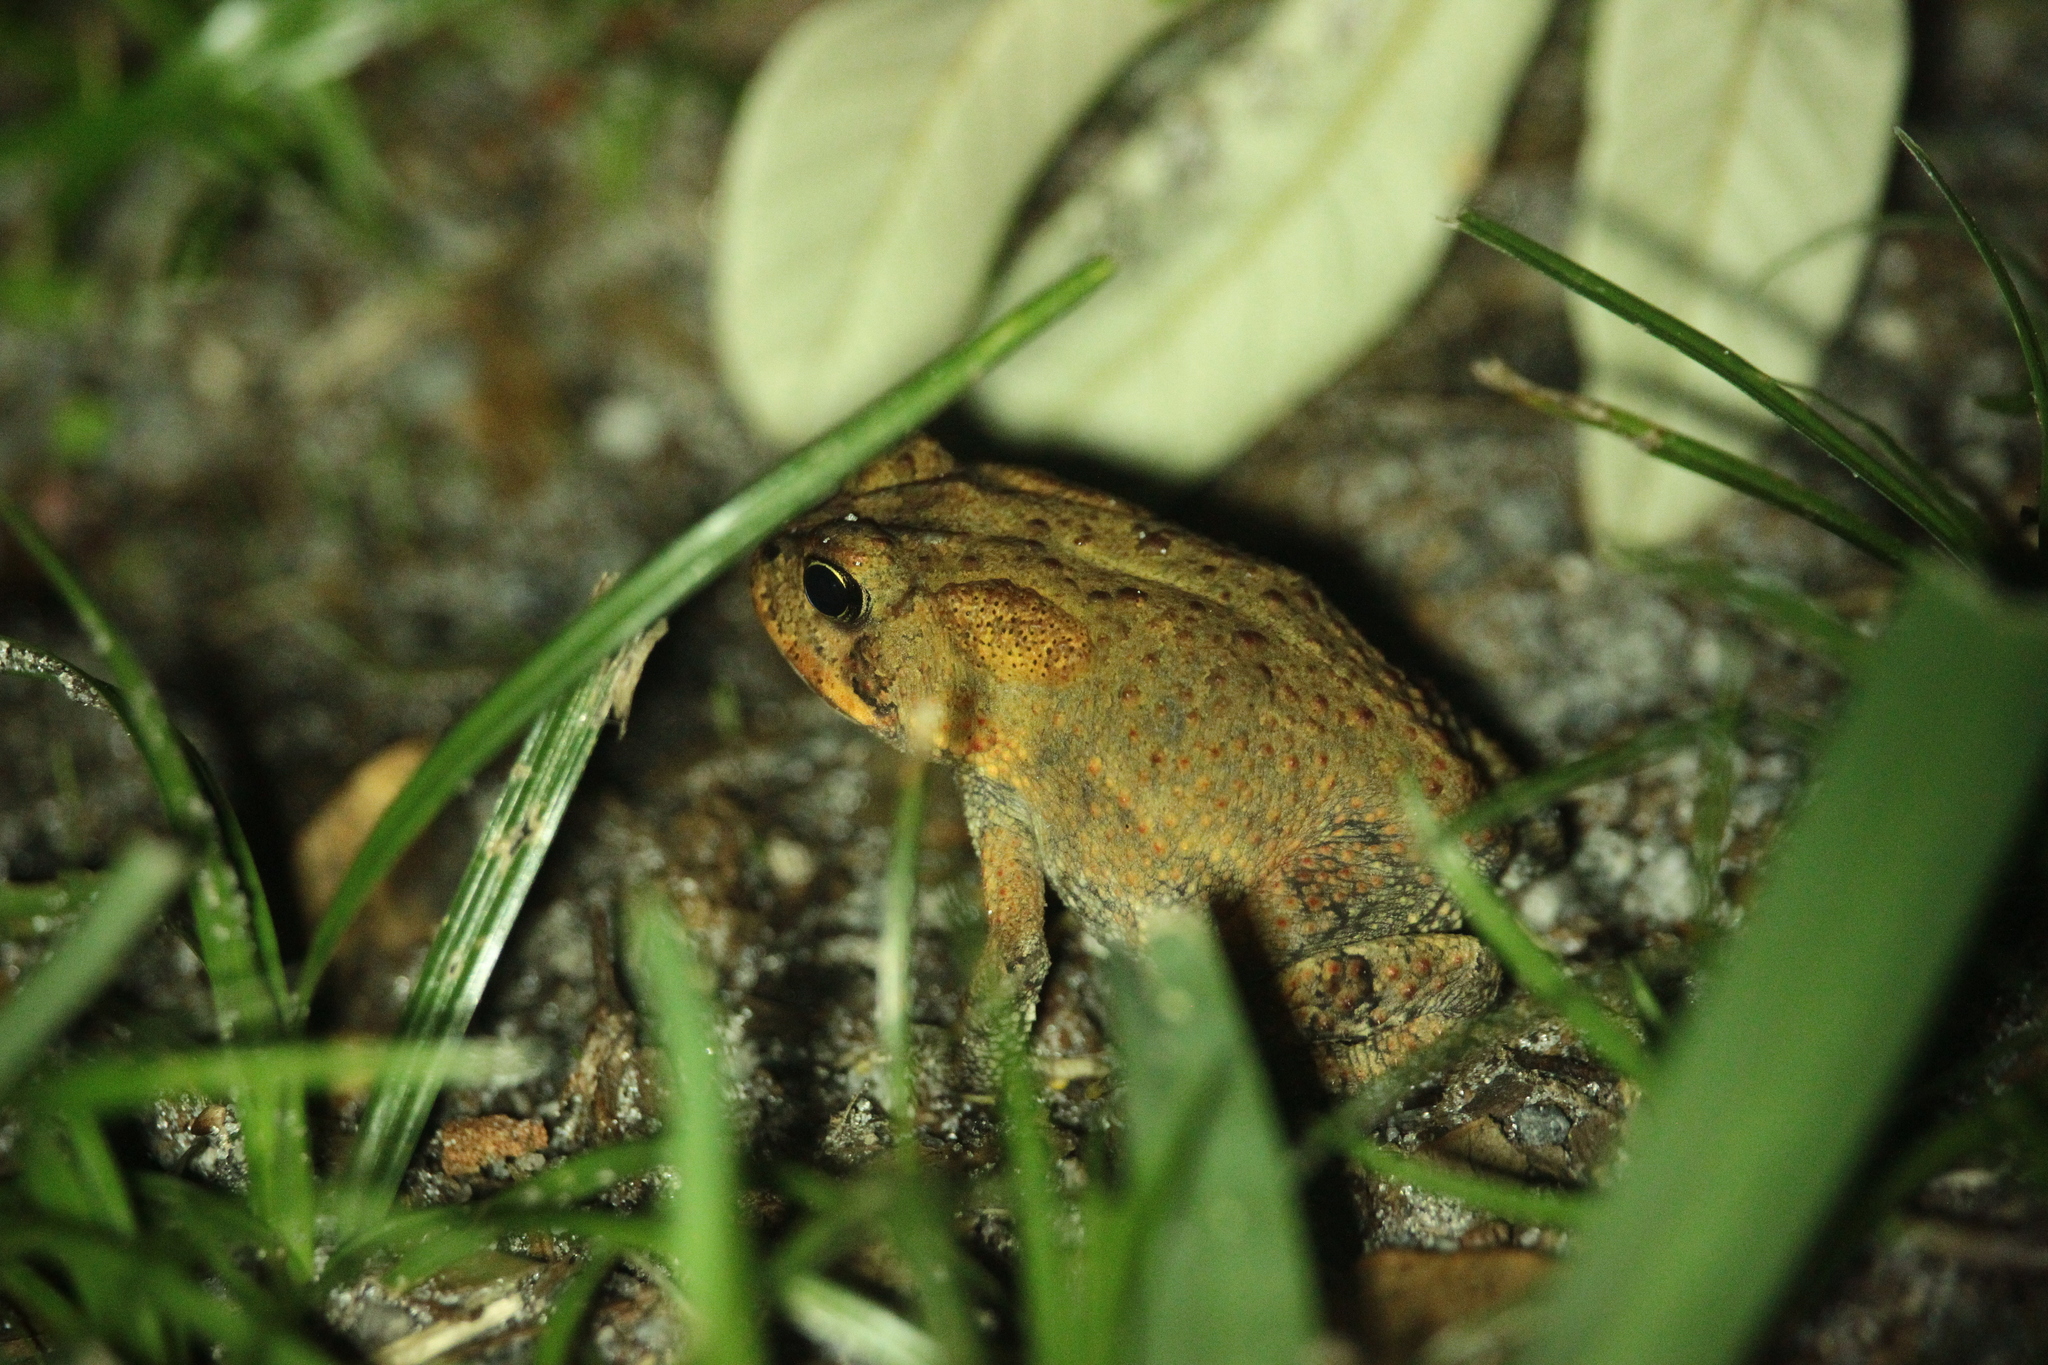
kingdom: Animalia
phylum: Chordata
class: Amphibia
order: Anura
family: Bufonidae
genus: Anaxyrus
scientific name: Anaxyrus terrestris
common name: Southern toad
